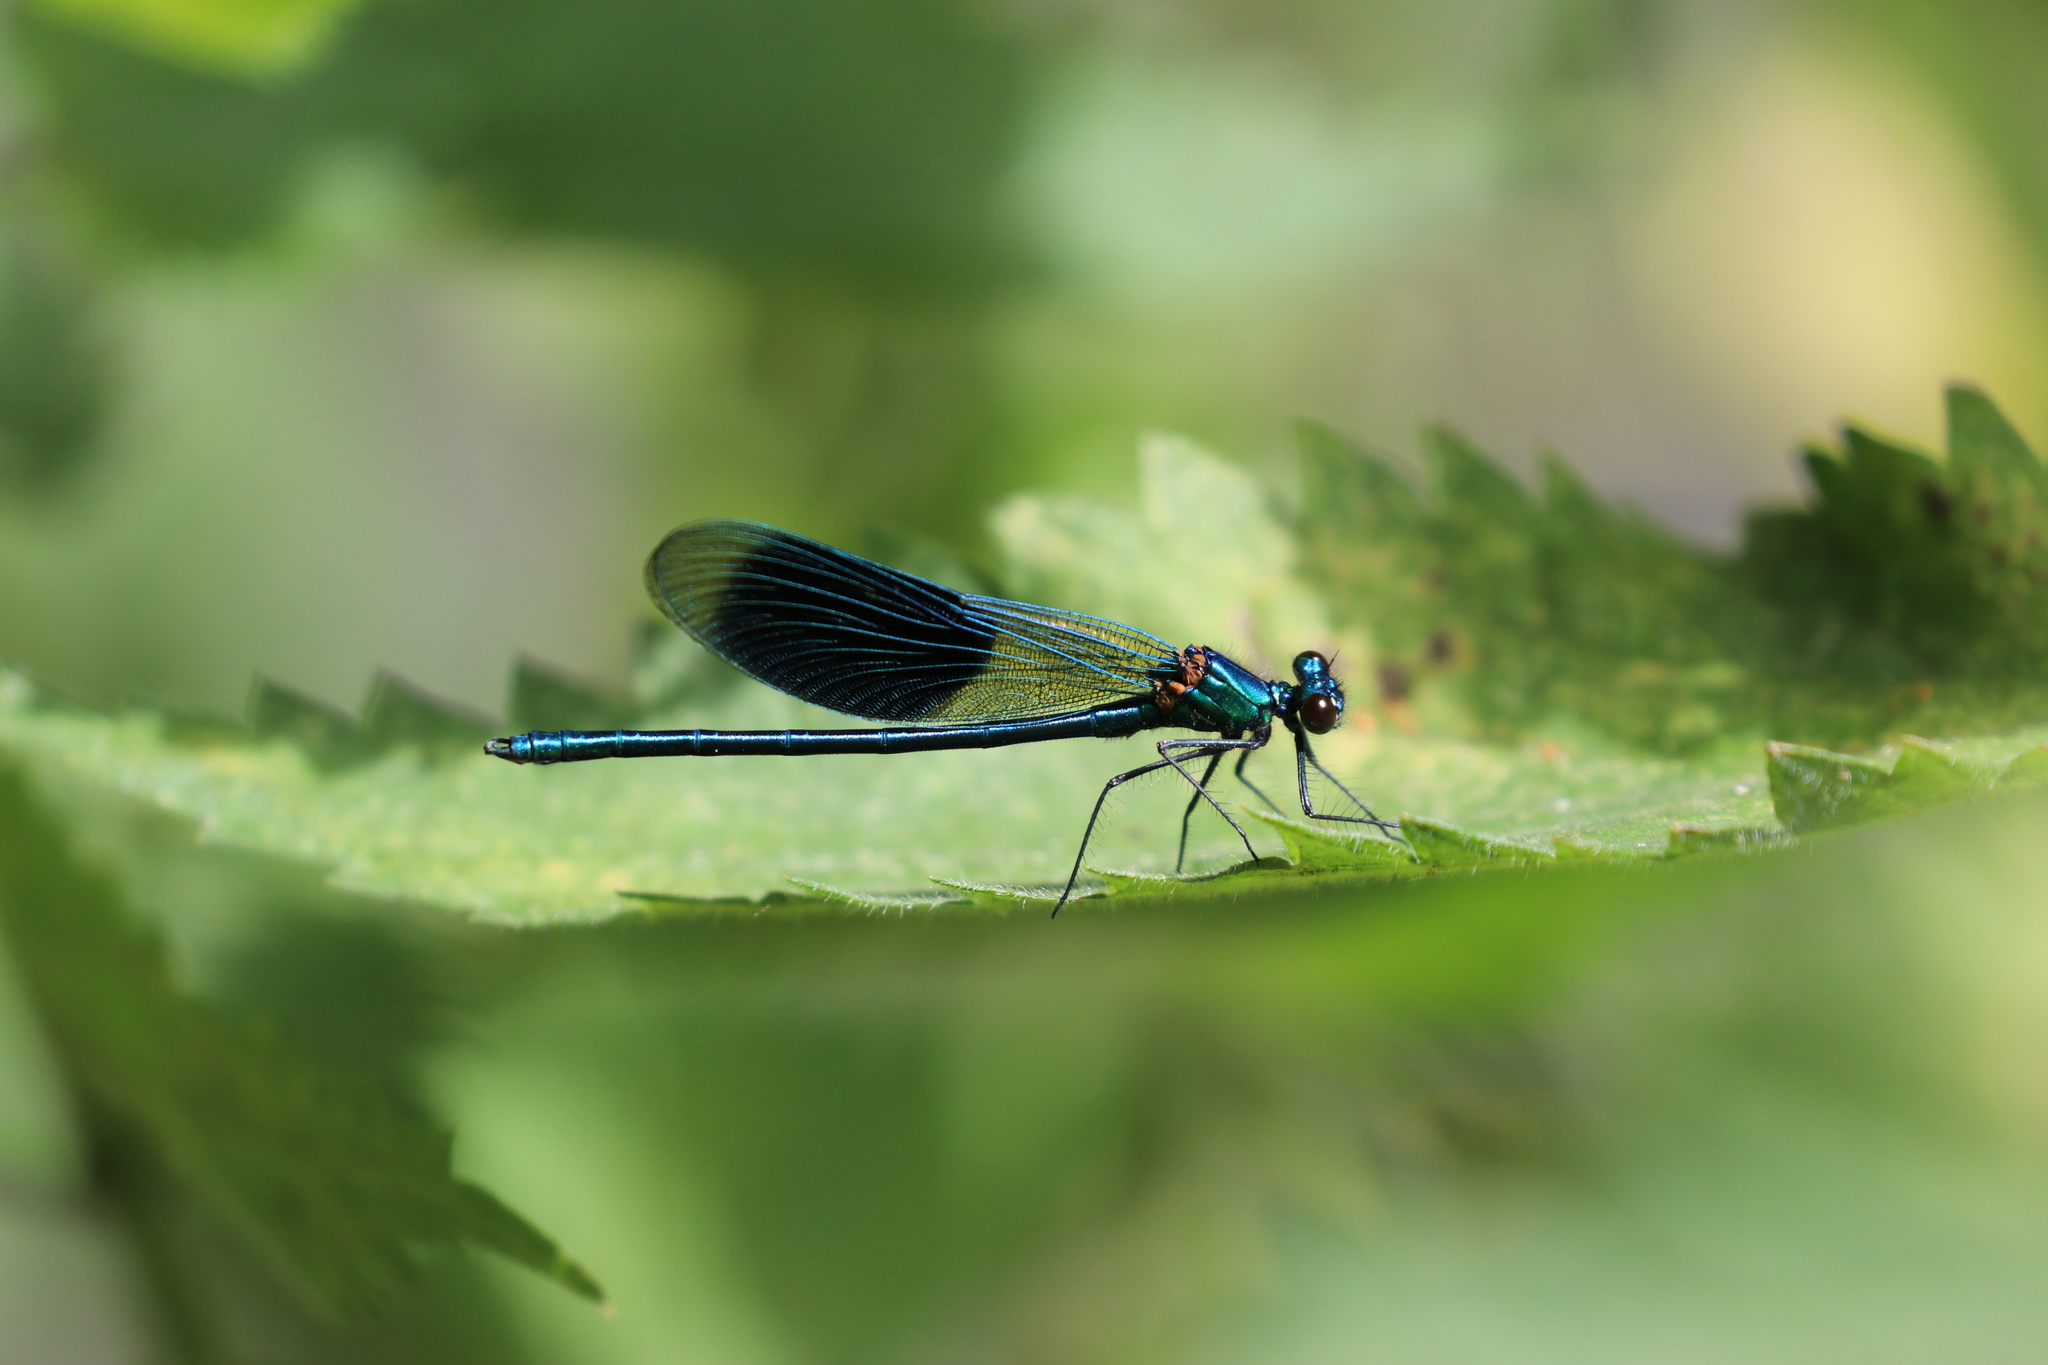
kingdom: Animalia
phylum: Arthropoda
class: Insecta
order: Odonata
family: Calopterygidae
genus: Calopteryx
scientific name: Calopteryx splendens
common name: Banded demoiselle
